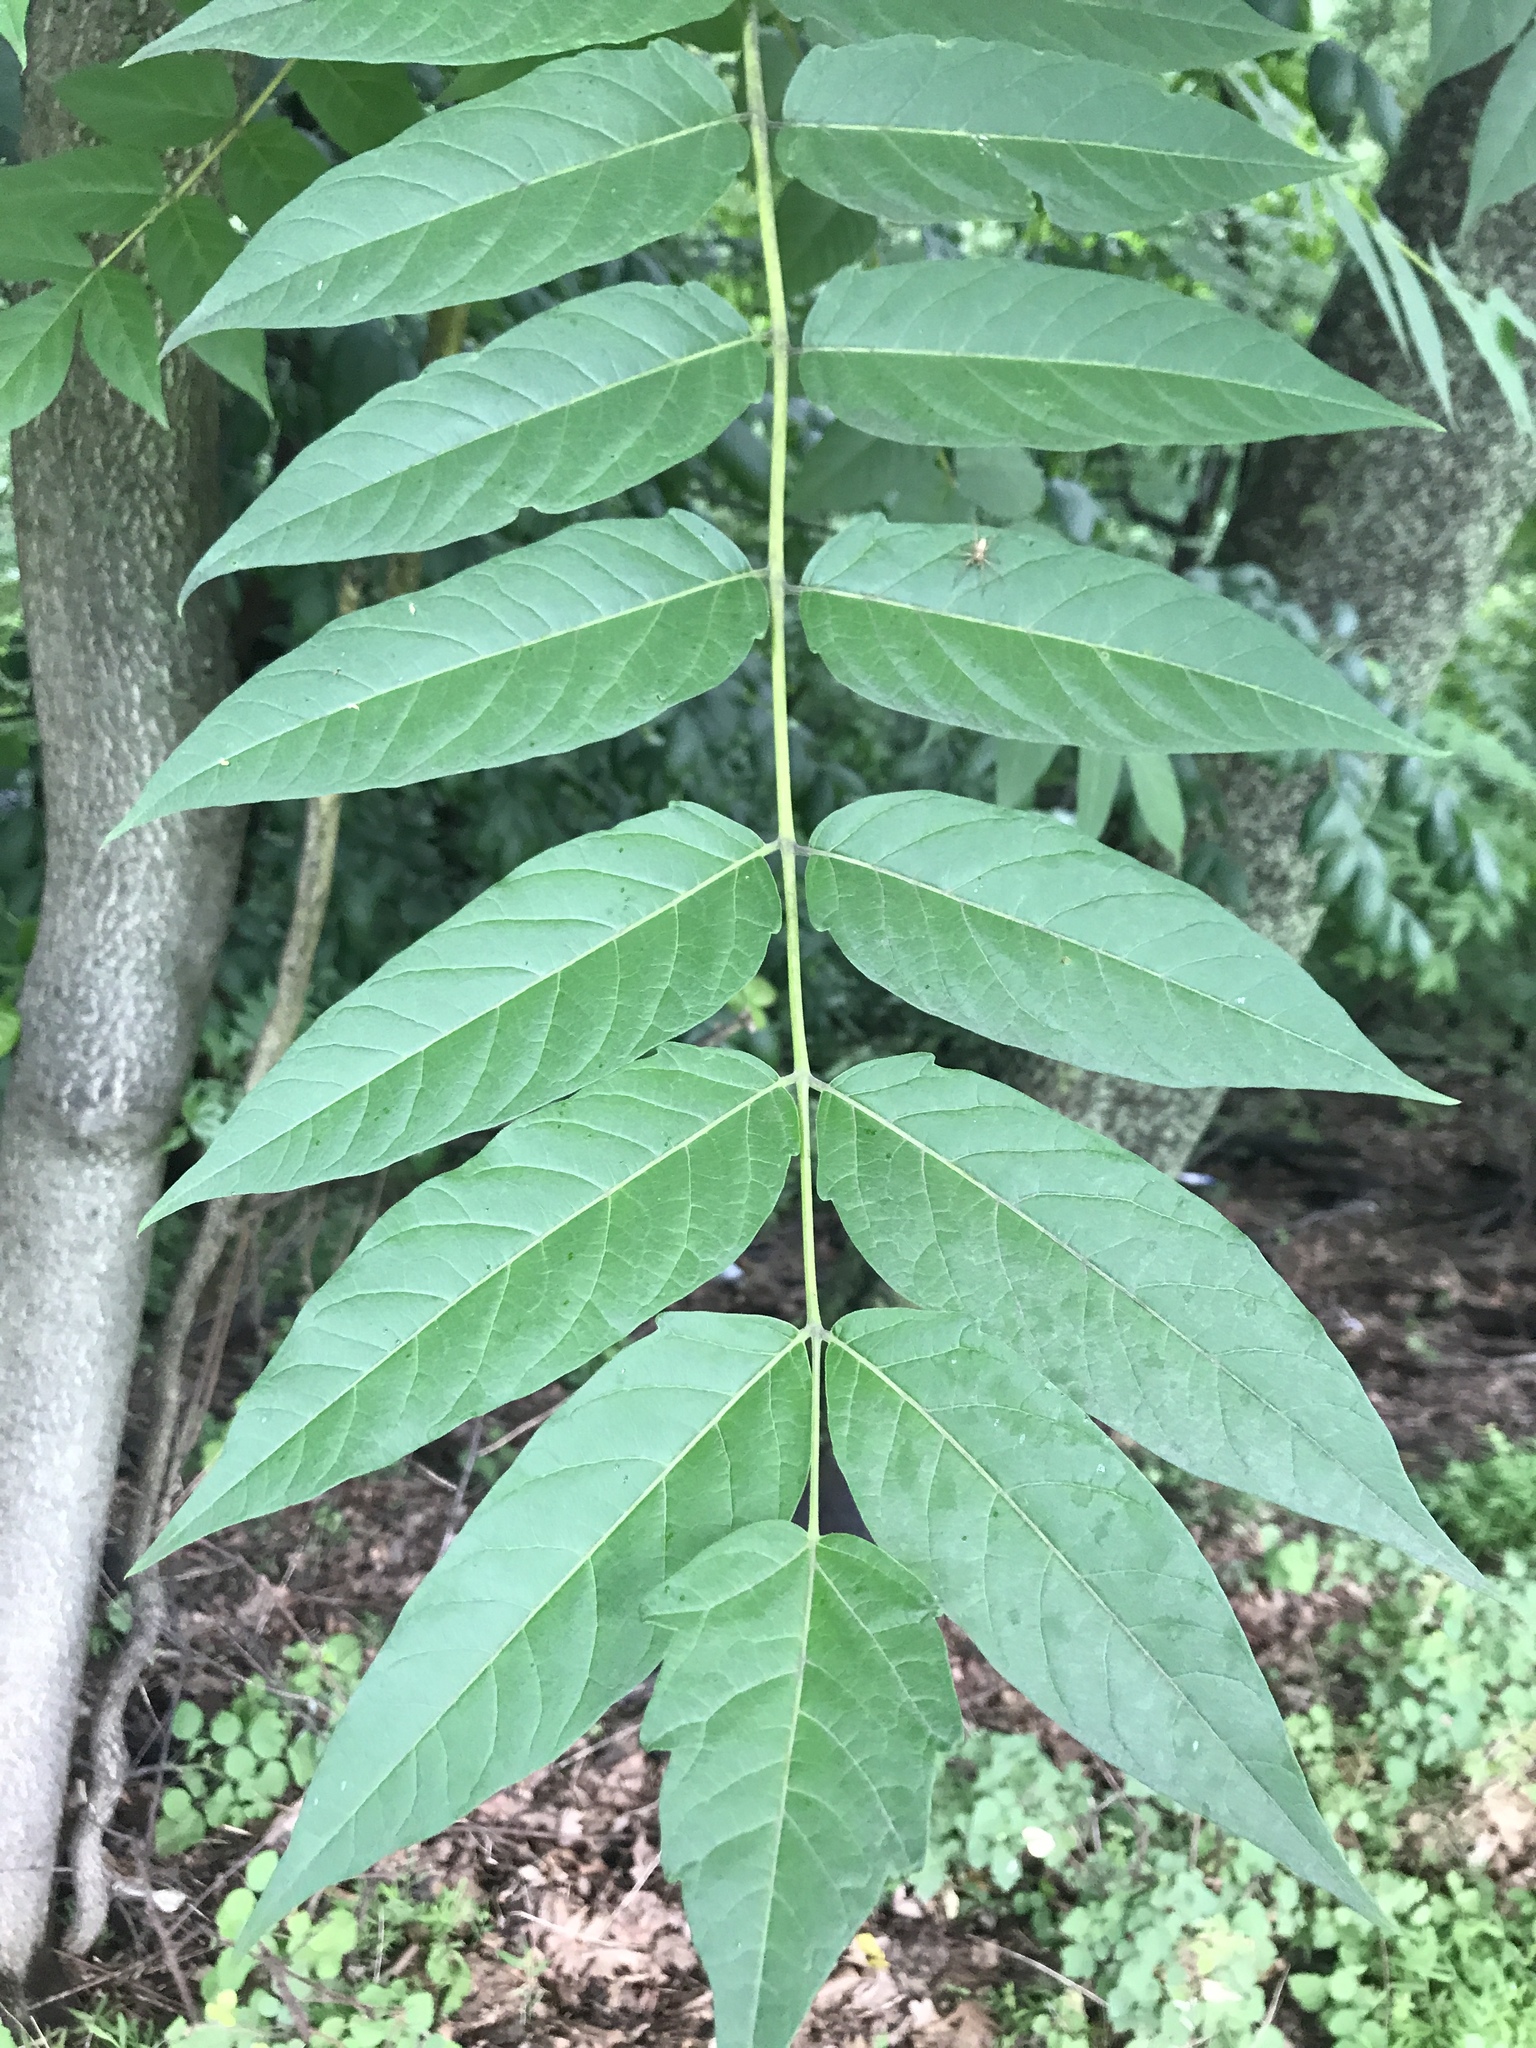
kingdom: Plantae
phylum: Tracheophyta
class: Magnoliopsida
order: Sapindales
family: Simaroubaceae
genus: Ailanthus
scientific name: Ailanthus altissima
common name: Tree-of-heaven
